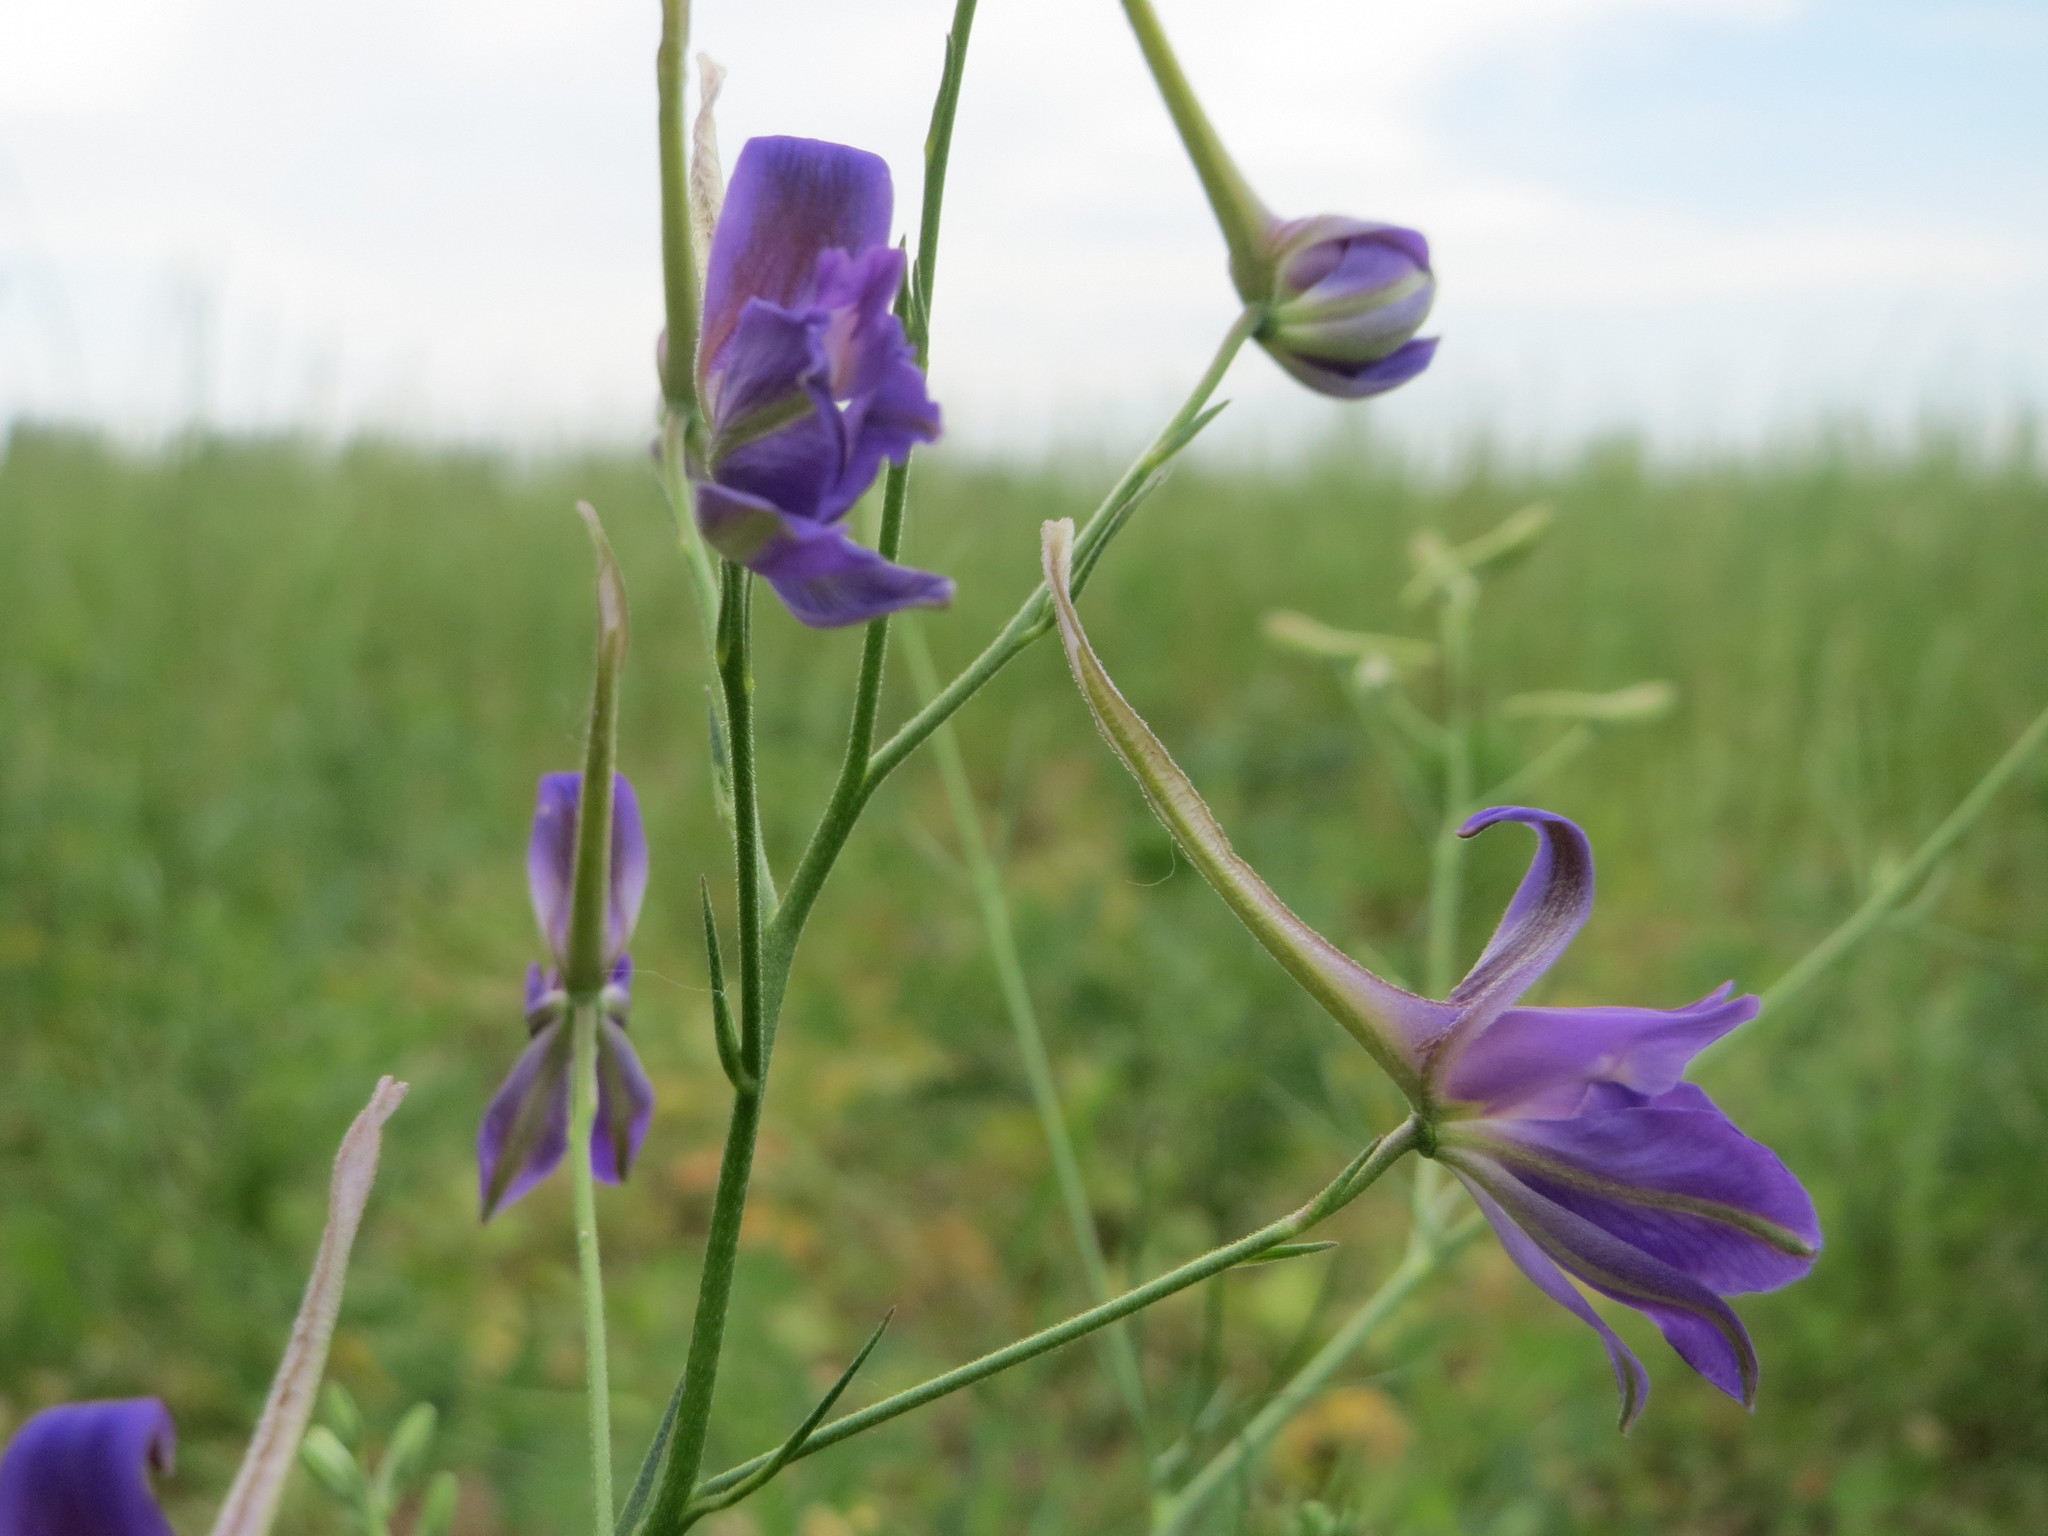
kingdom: Plantae
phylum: Tracheophyta
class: Magnoliopsida
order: Ranunculales
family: Ranunculaceae
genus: Delphinium
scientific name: Delphinium consolida
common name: Branching larkspur
